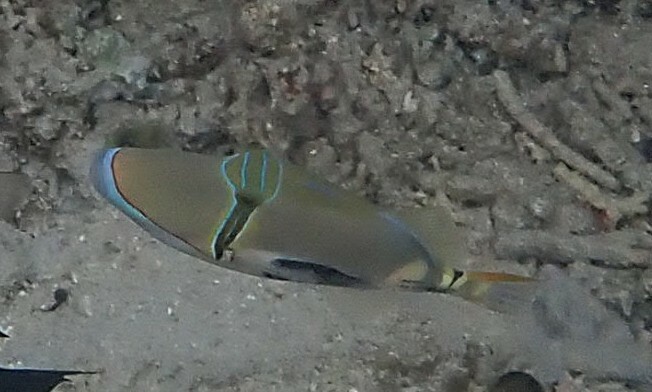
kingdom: Animalia
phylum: Chordata
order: Tetraodontiformes
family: Balistidae
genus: Rhinecanthus
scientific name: Rhinecanthus verrucosus
